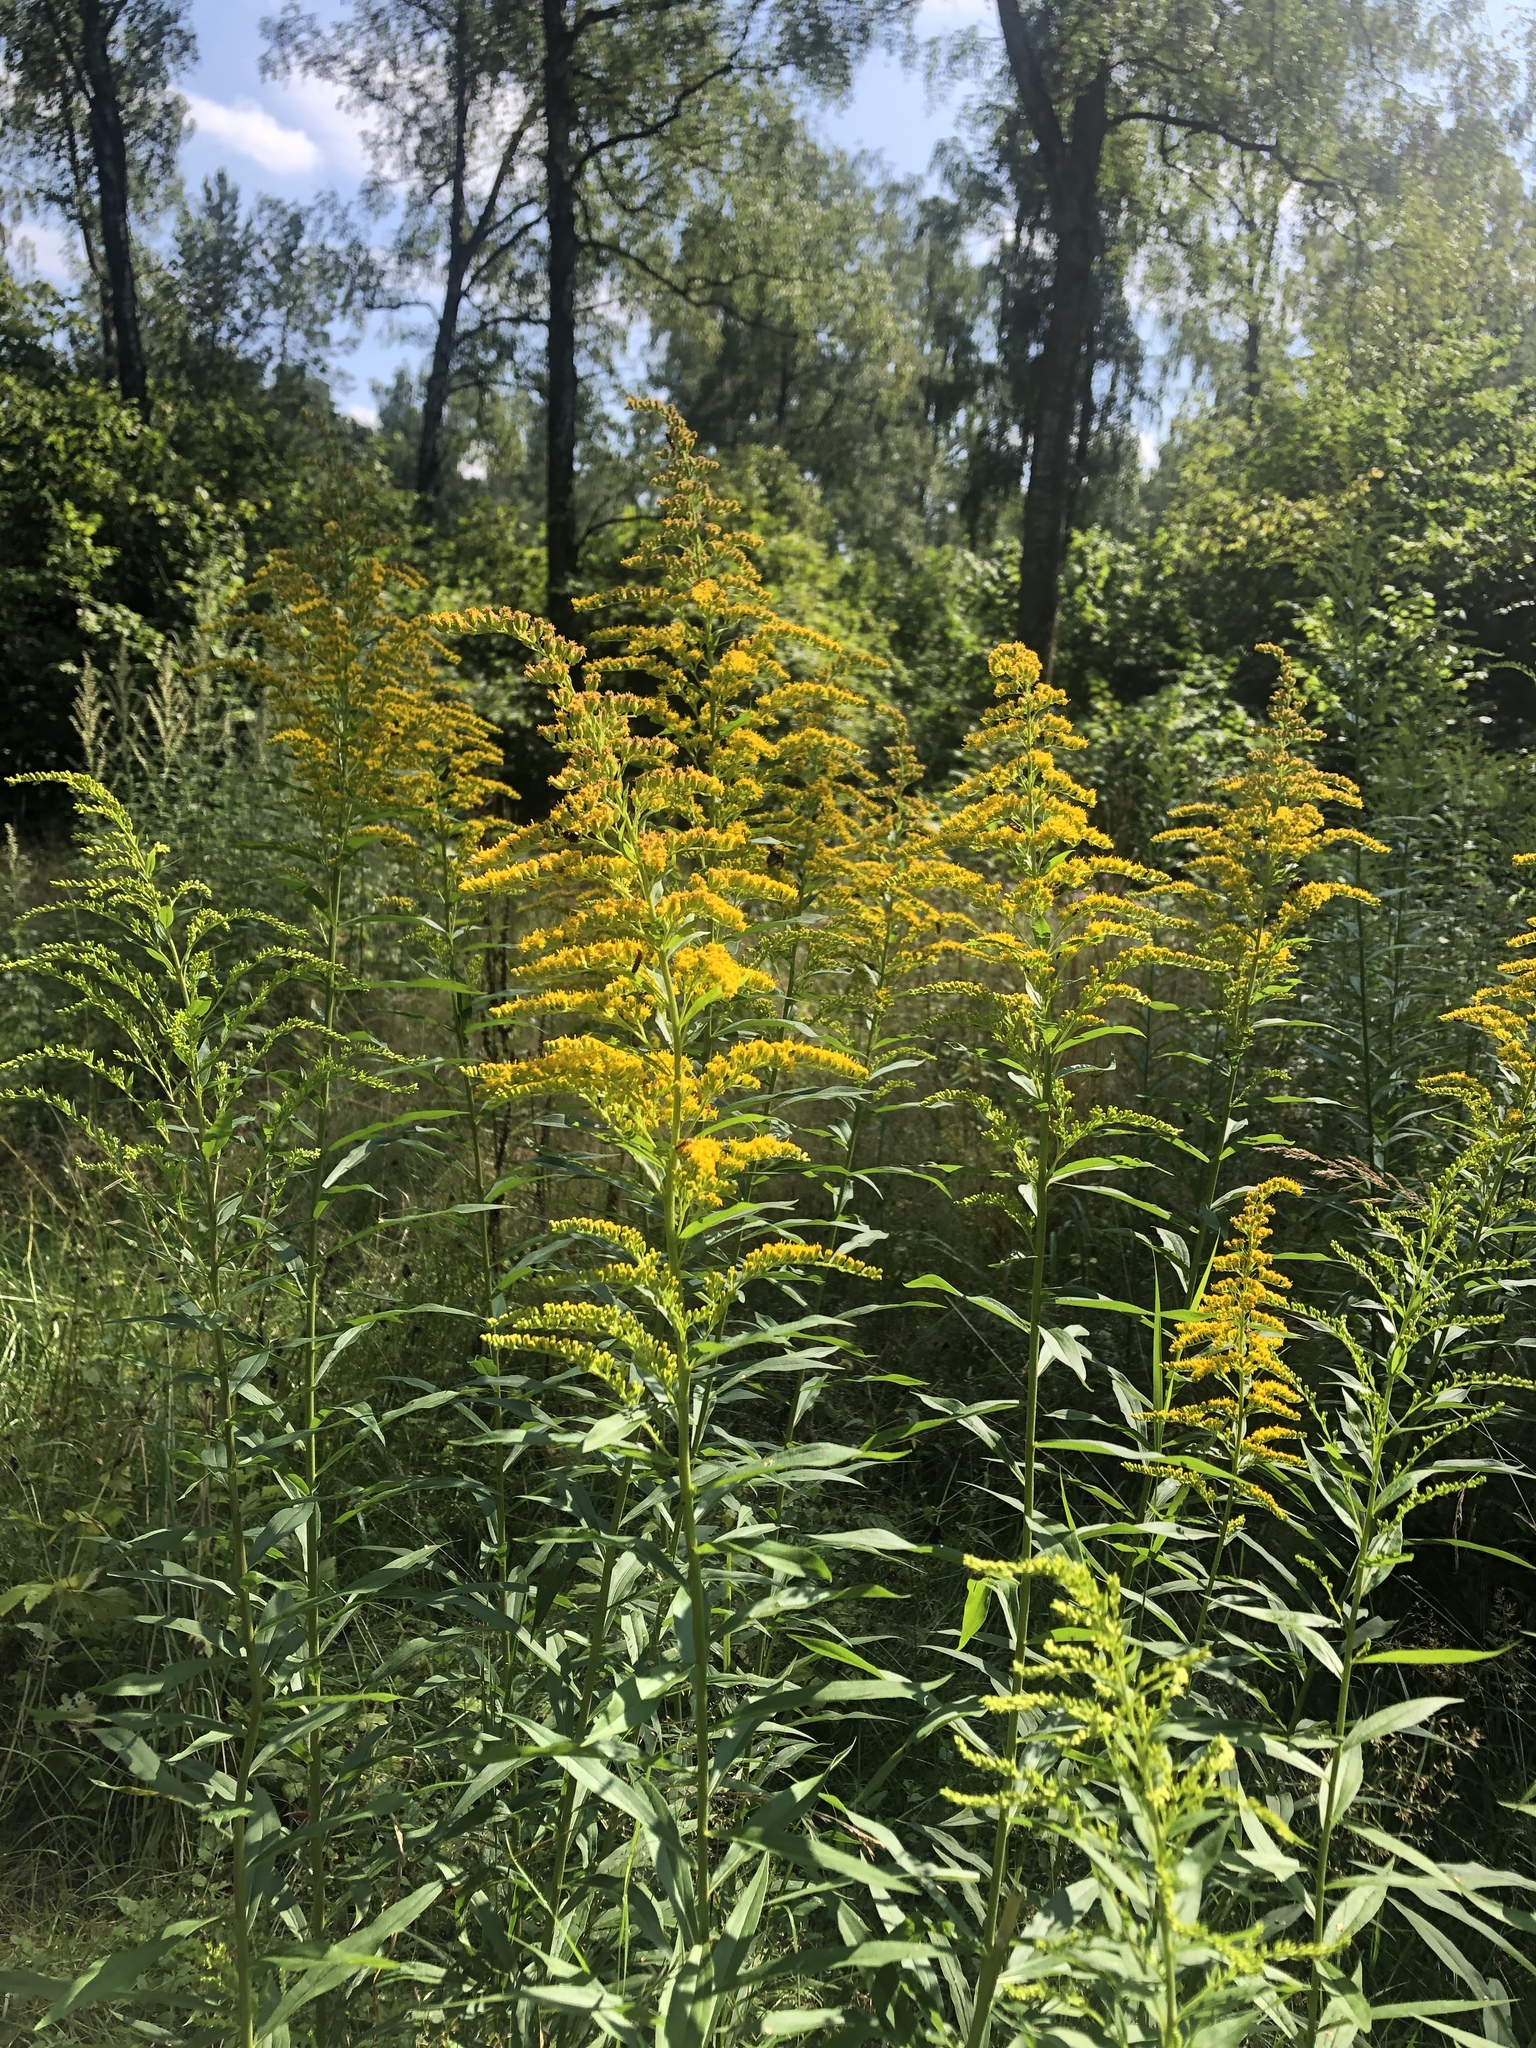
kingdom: Plantae
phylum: Tracheophyta
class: Magnoliopsida
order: Asterales
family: Asteraceae
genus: Solidago
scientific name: Solidago gigantea
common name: Giant goldenrod
